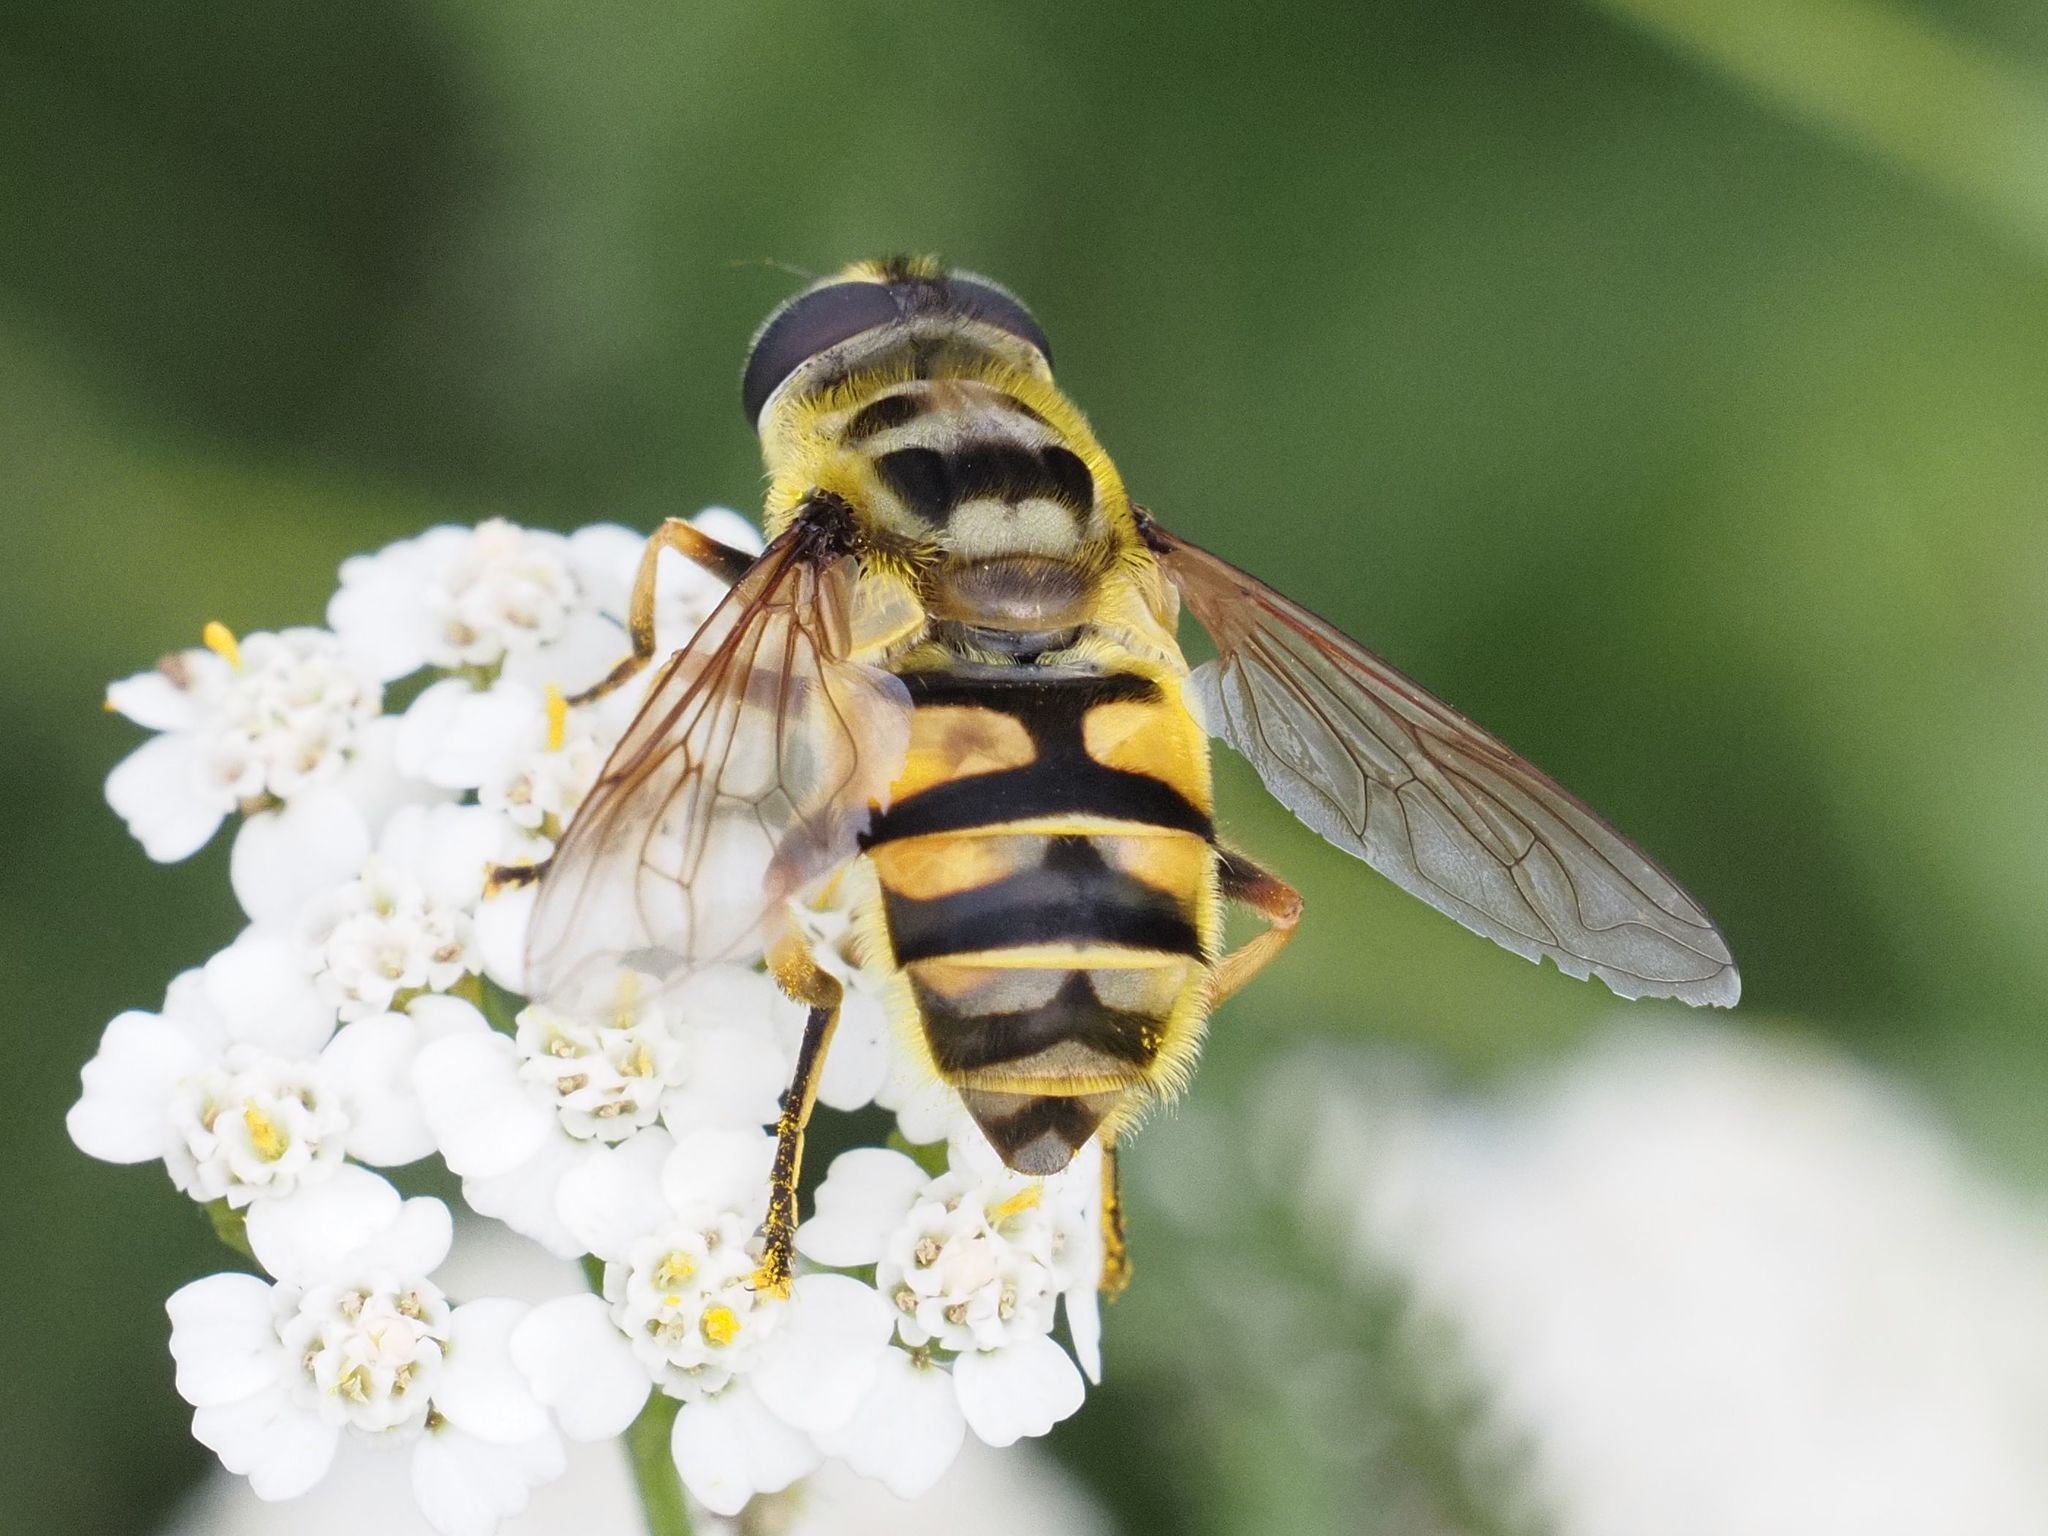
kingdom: Animalia
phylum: Arthropoda
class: Insecta
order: Diptera
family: Syrphidae
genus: Myathropa
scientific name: Myathropa florea
